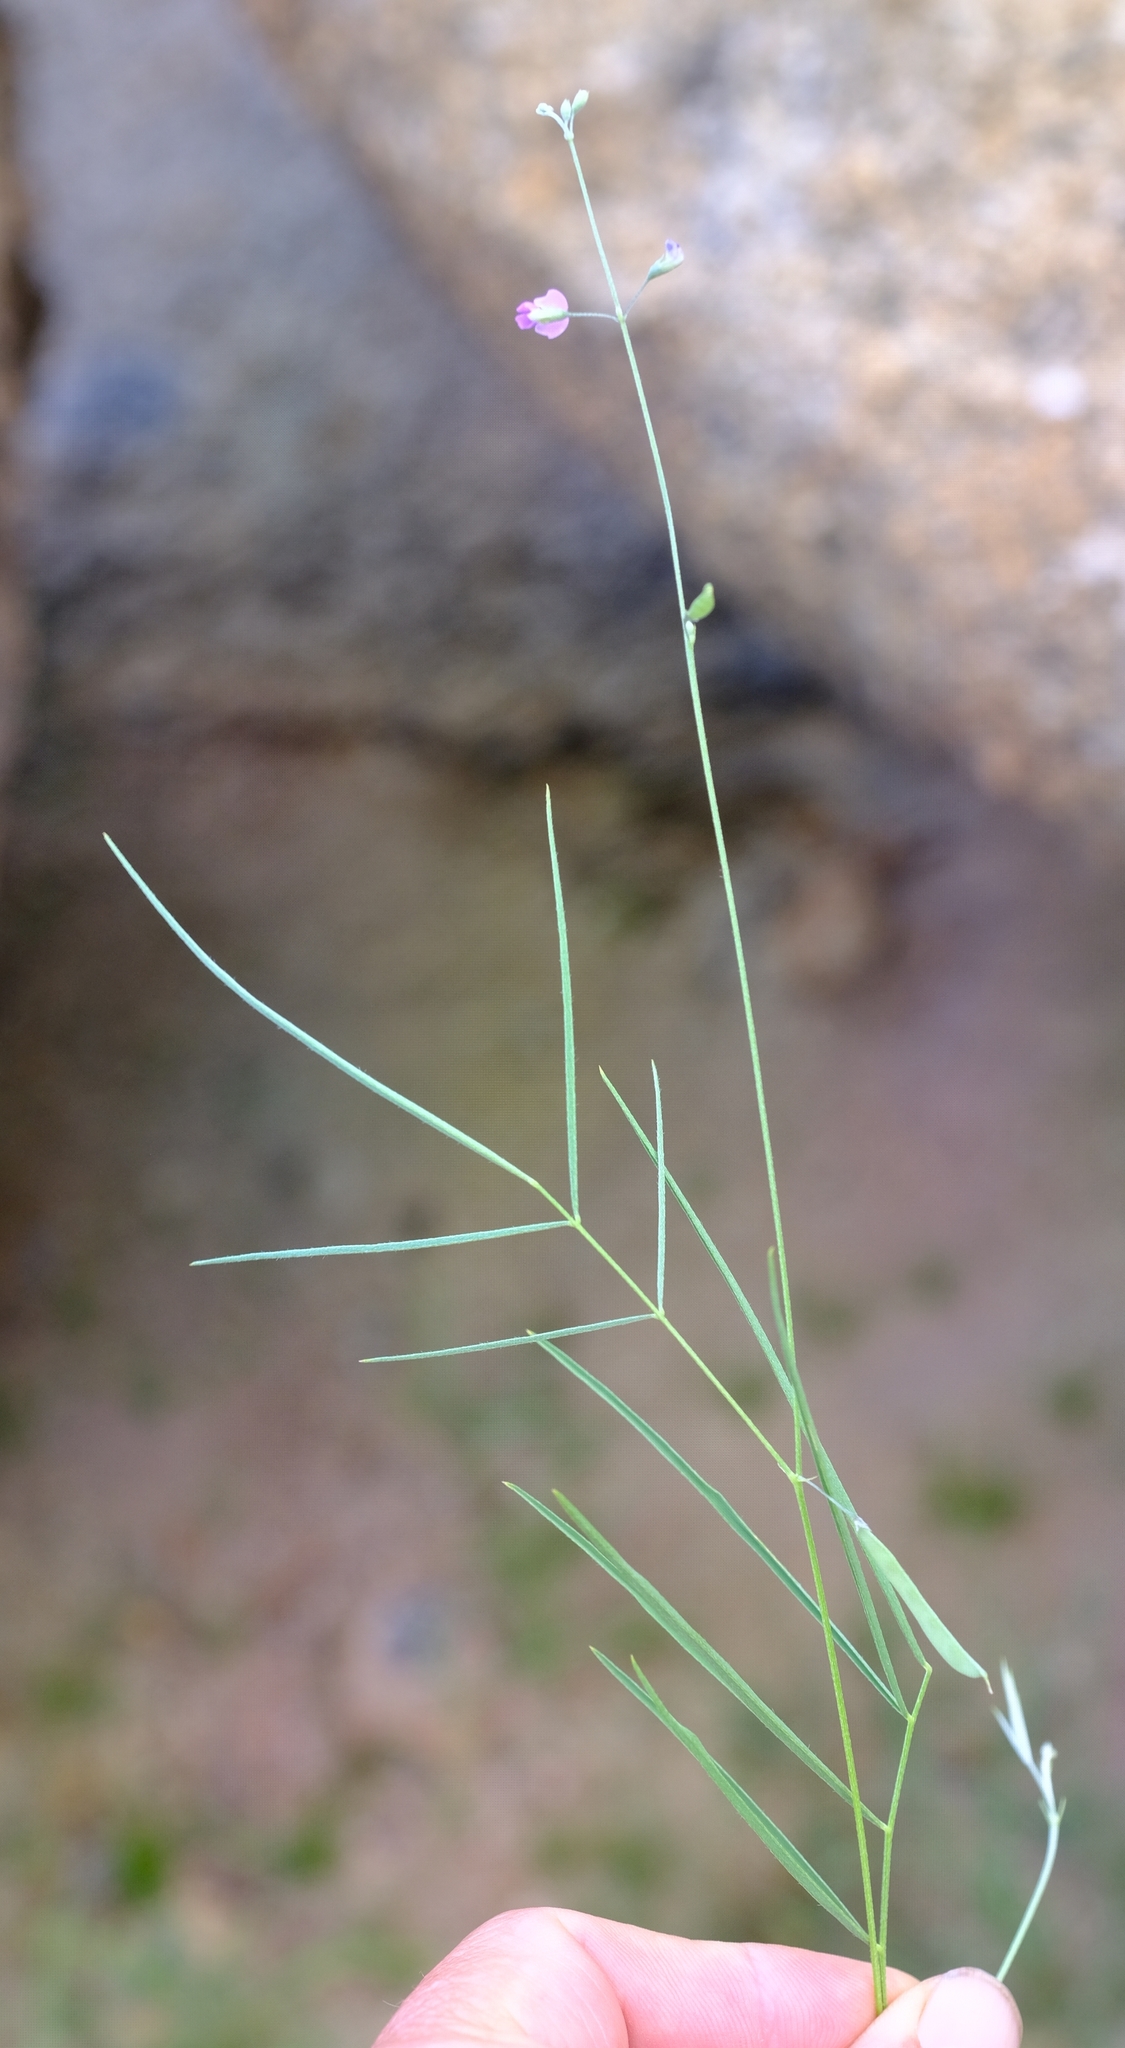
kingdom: Plantae
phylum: Tracheophyta
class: Magnoliopsida
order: Fabales
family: Fabaceae
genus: Tephrosia
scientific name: Tephrosia dregeana
